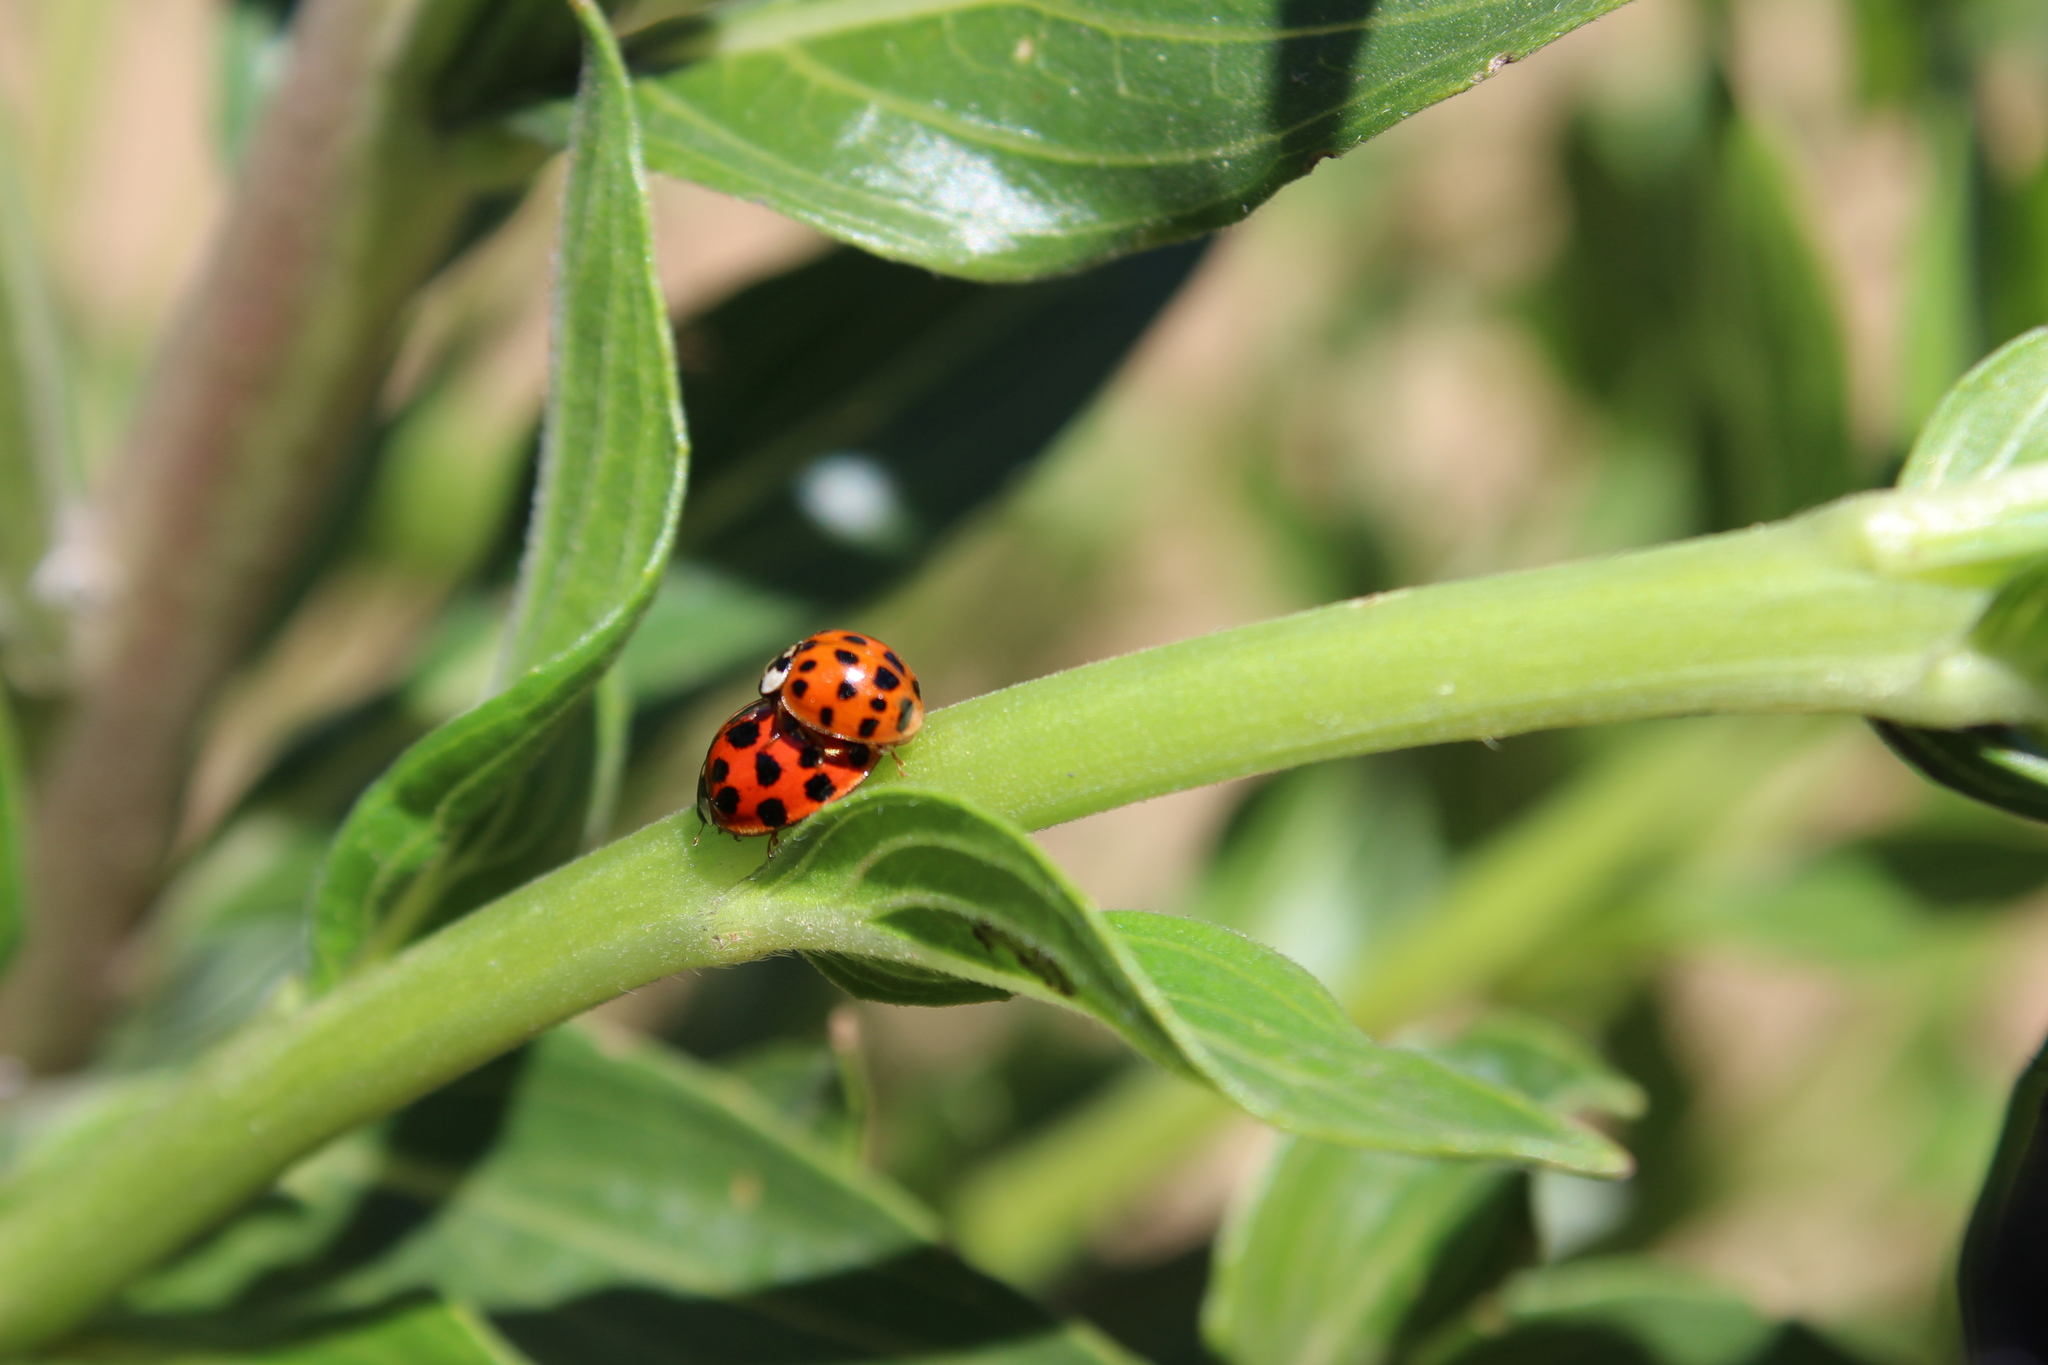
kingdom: Animalia
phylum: Arthropoda
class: Insecta
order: Coleoptera
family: Coccinellidae
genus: Harmonia
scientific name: Harmonia axyridis
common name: Harlequin ladybird
